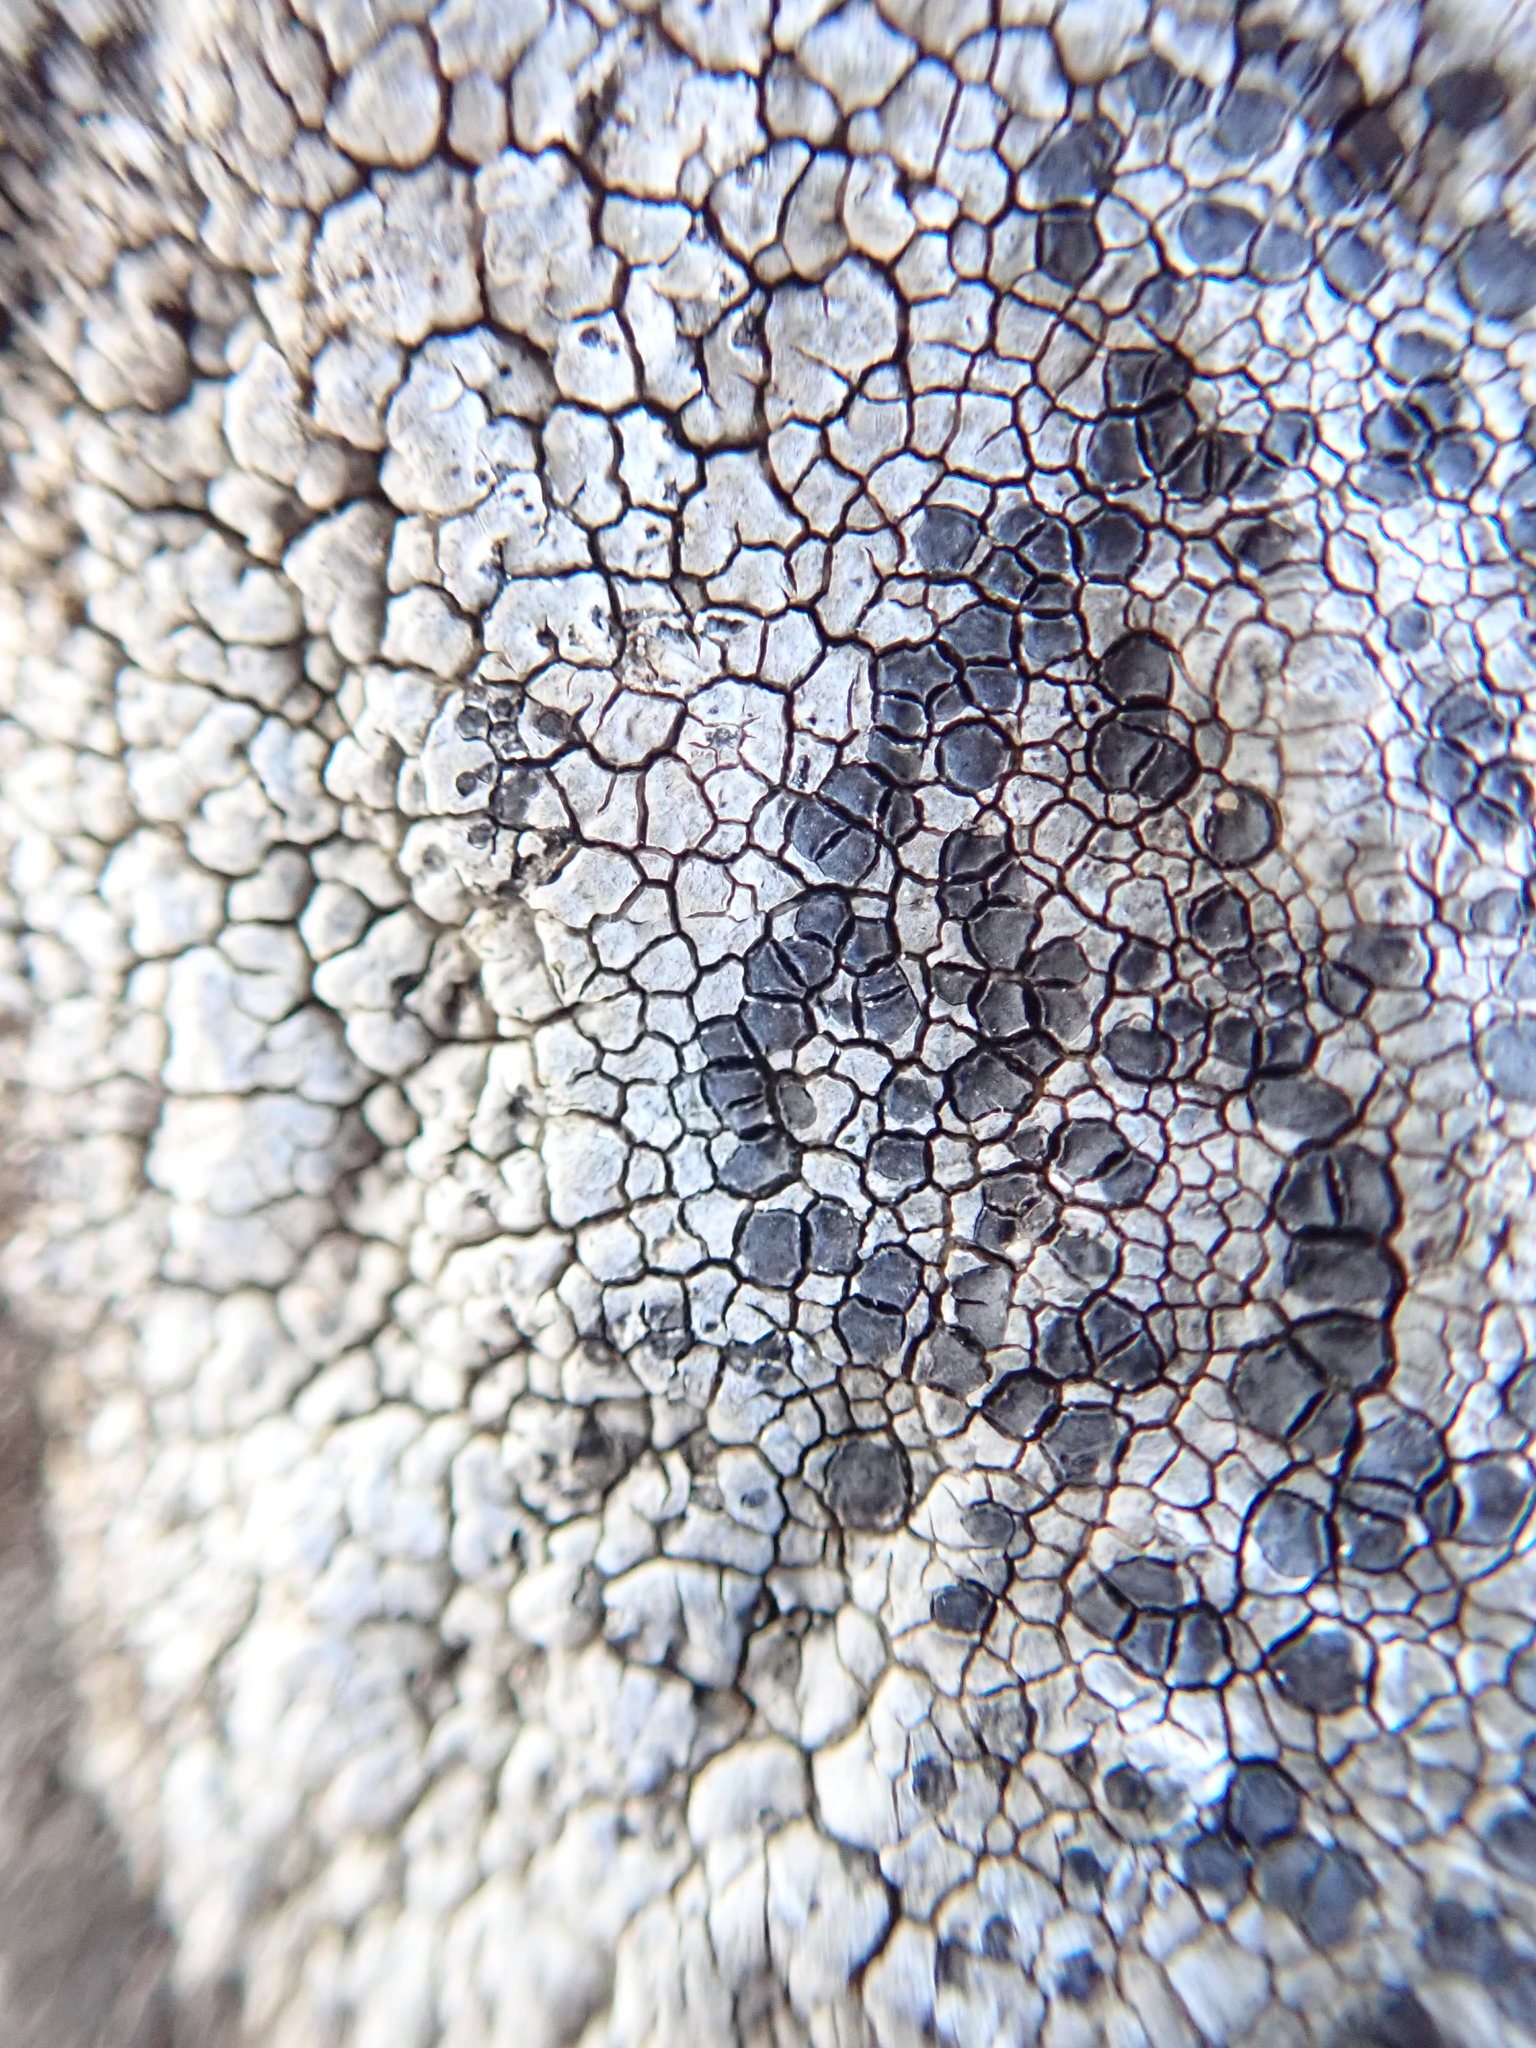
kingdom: Fungi
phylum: Ascomycota
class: Lecanoromycetes
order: Lecideales
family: Lecideaceae
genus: Lecidea
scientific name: Lecidea tessellata
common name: Tile lichen
